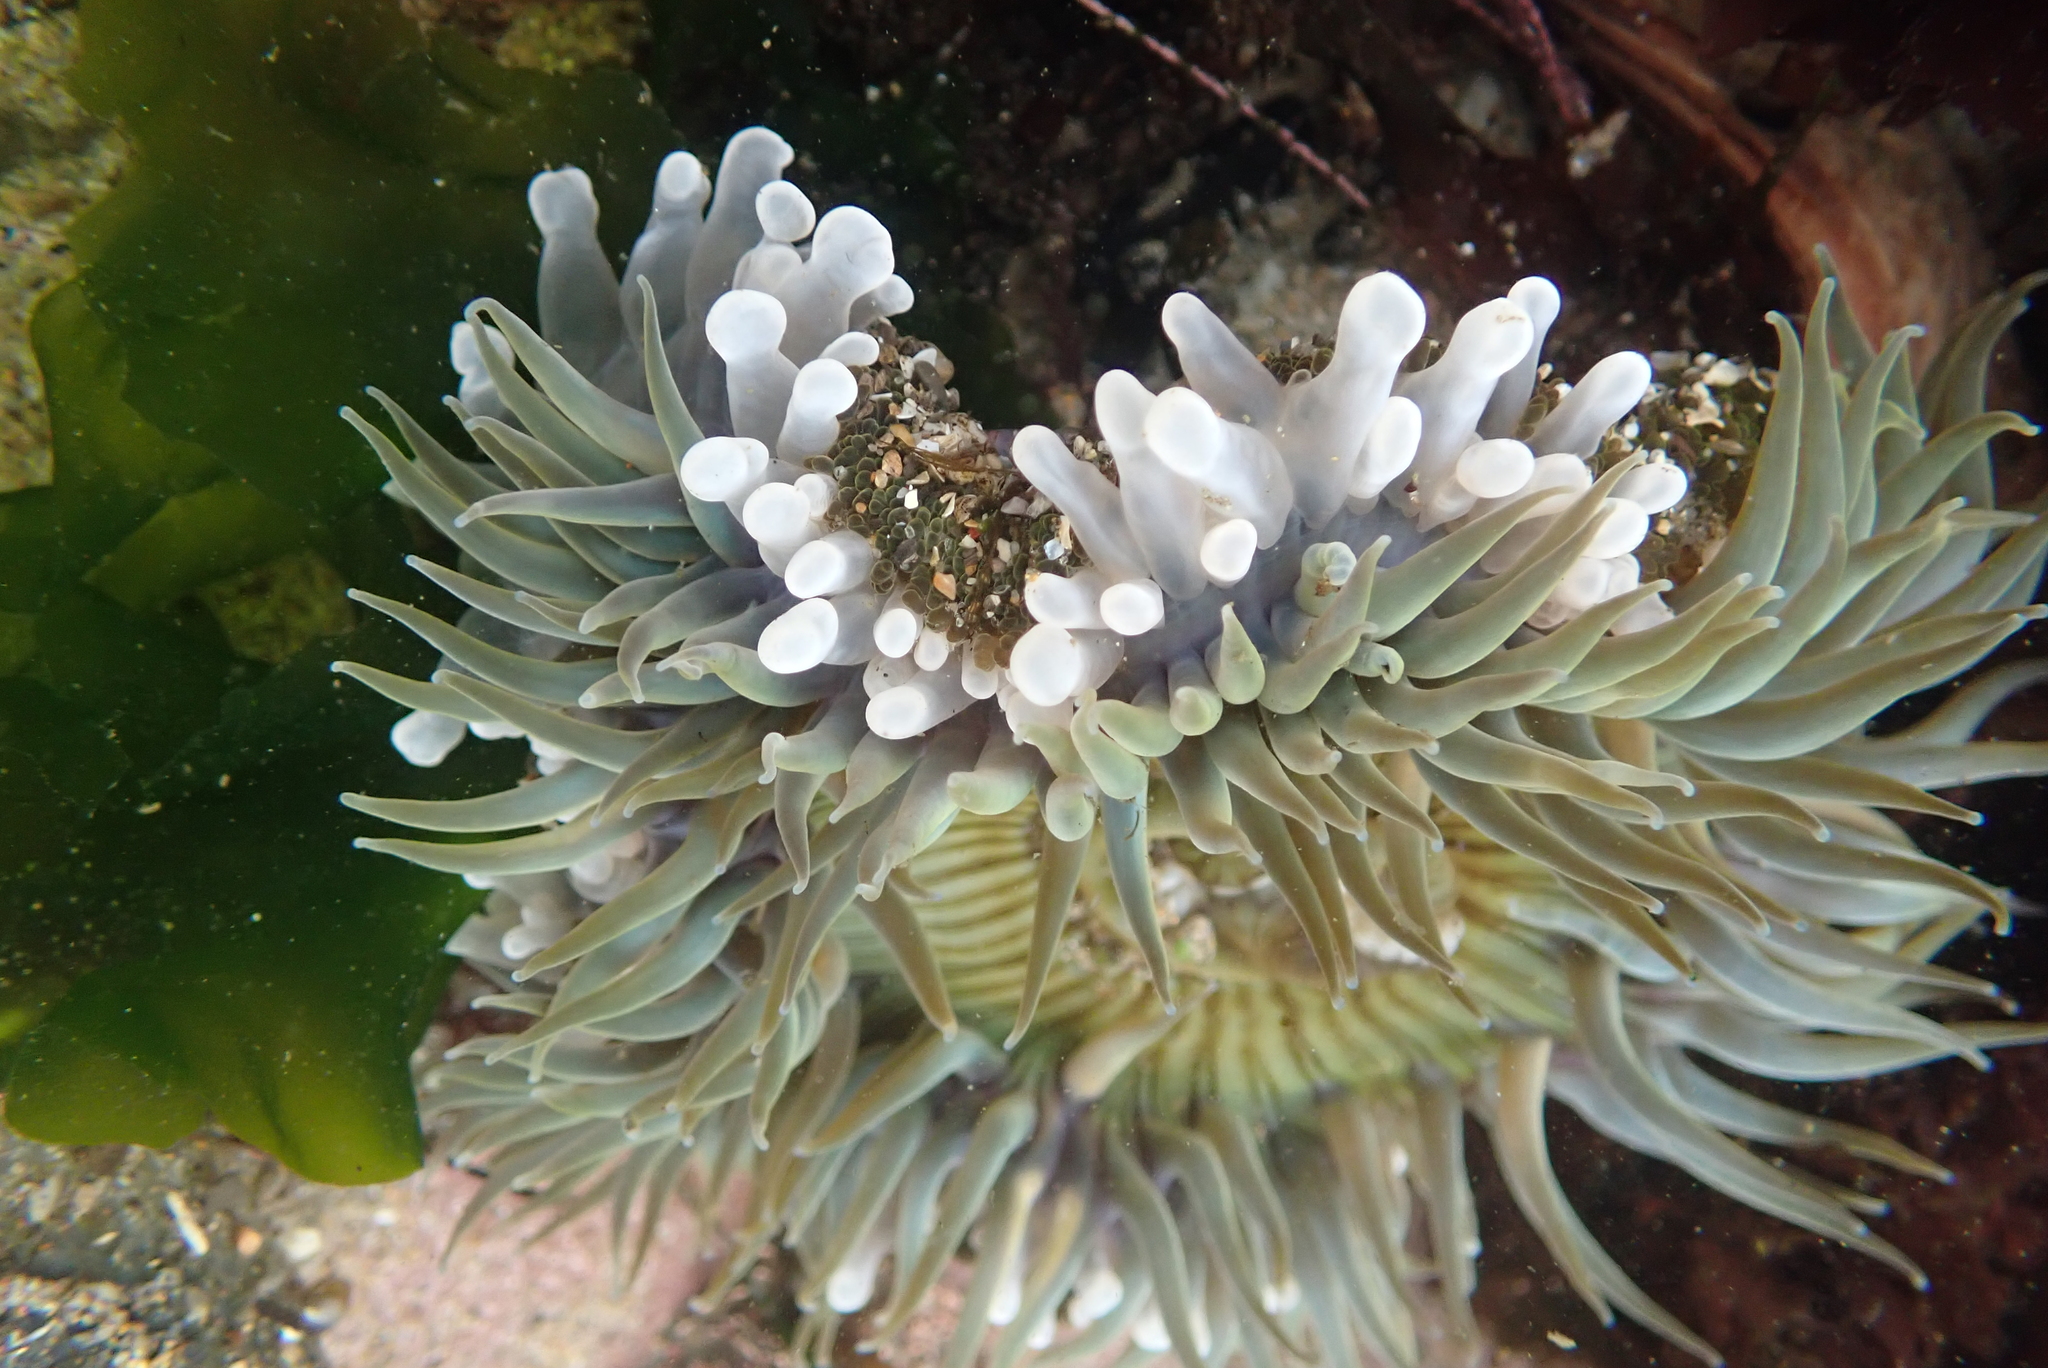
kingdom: Animalia
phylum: Cnidaria
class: Anthozoa
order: Actiniaria
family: Actiniidae
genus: Anthopleura
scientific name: Anthopleura sola
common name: Sun anemone
